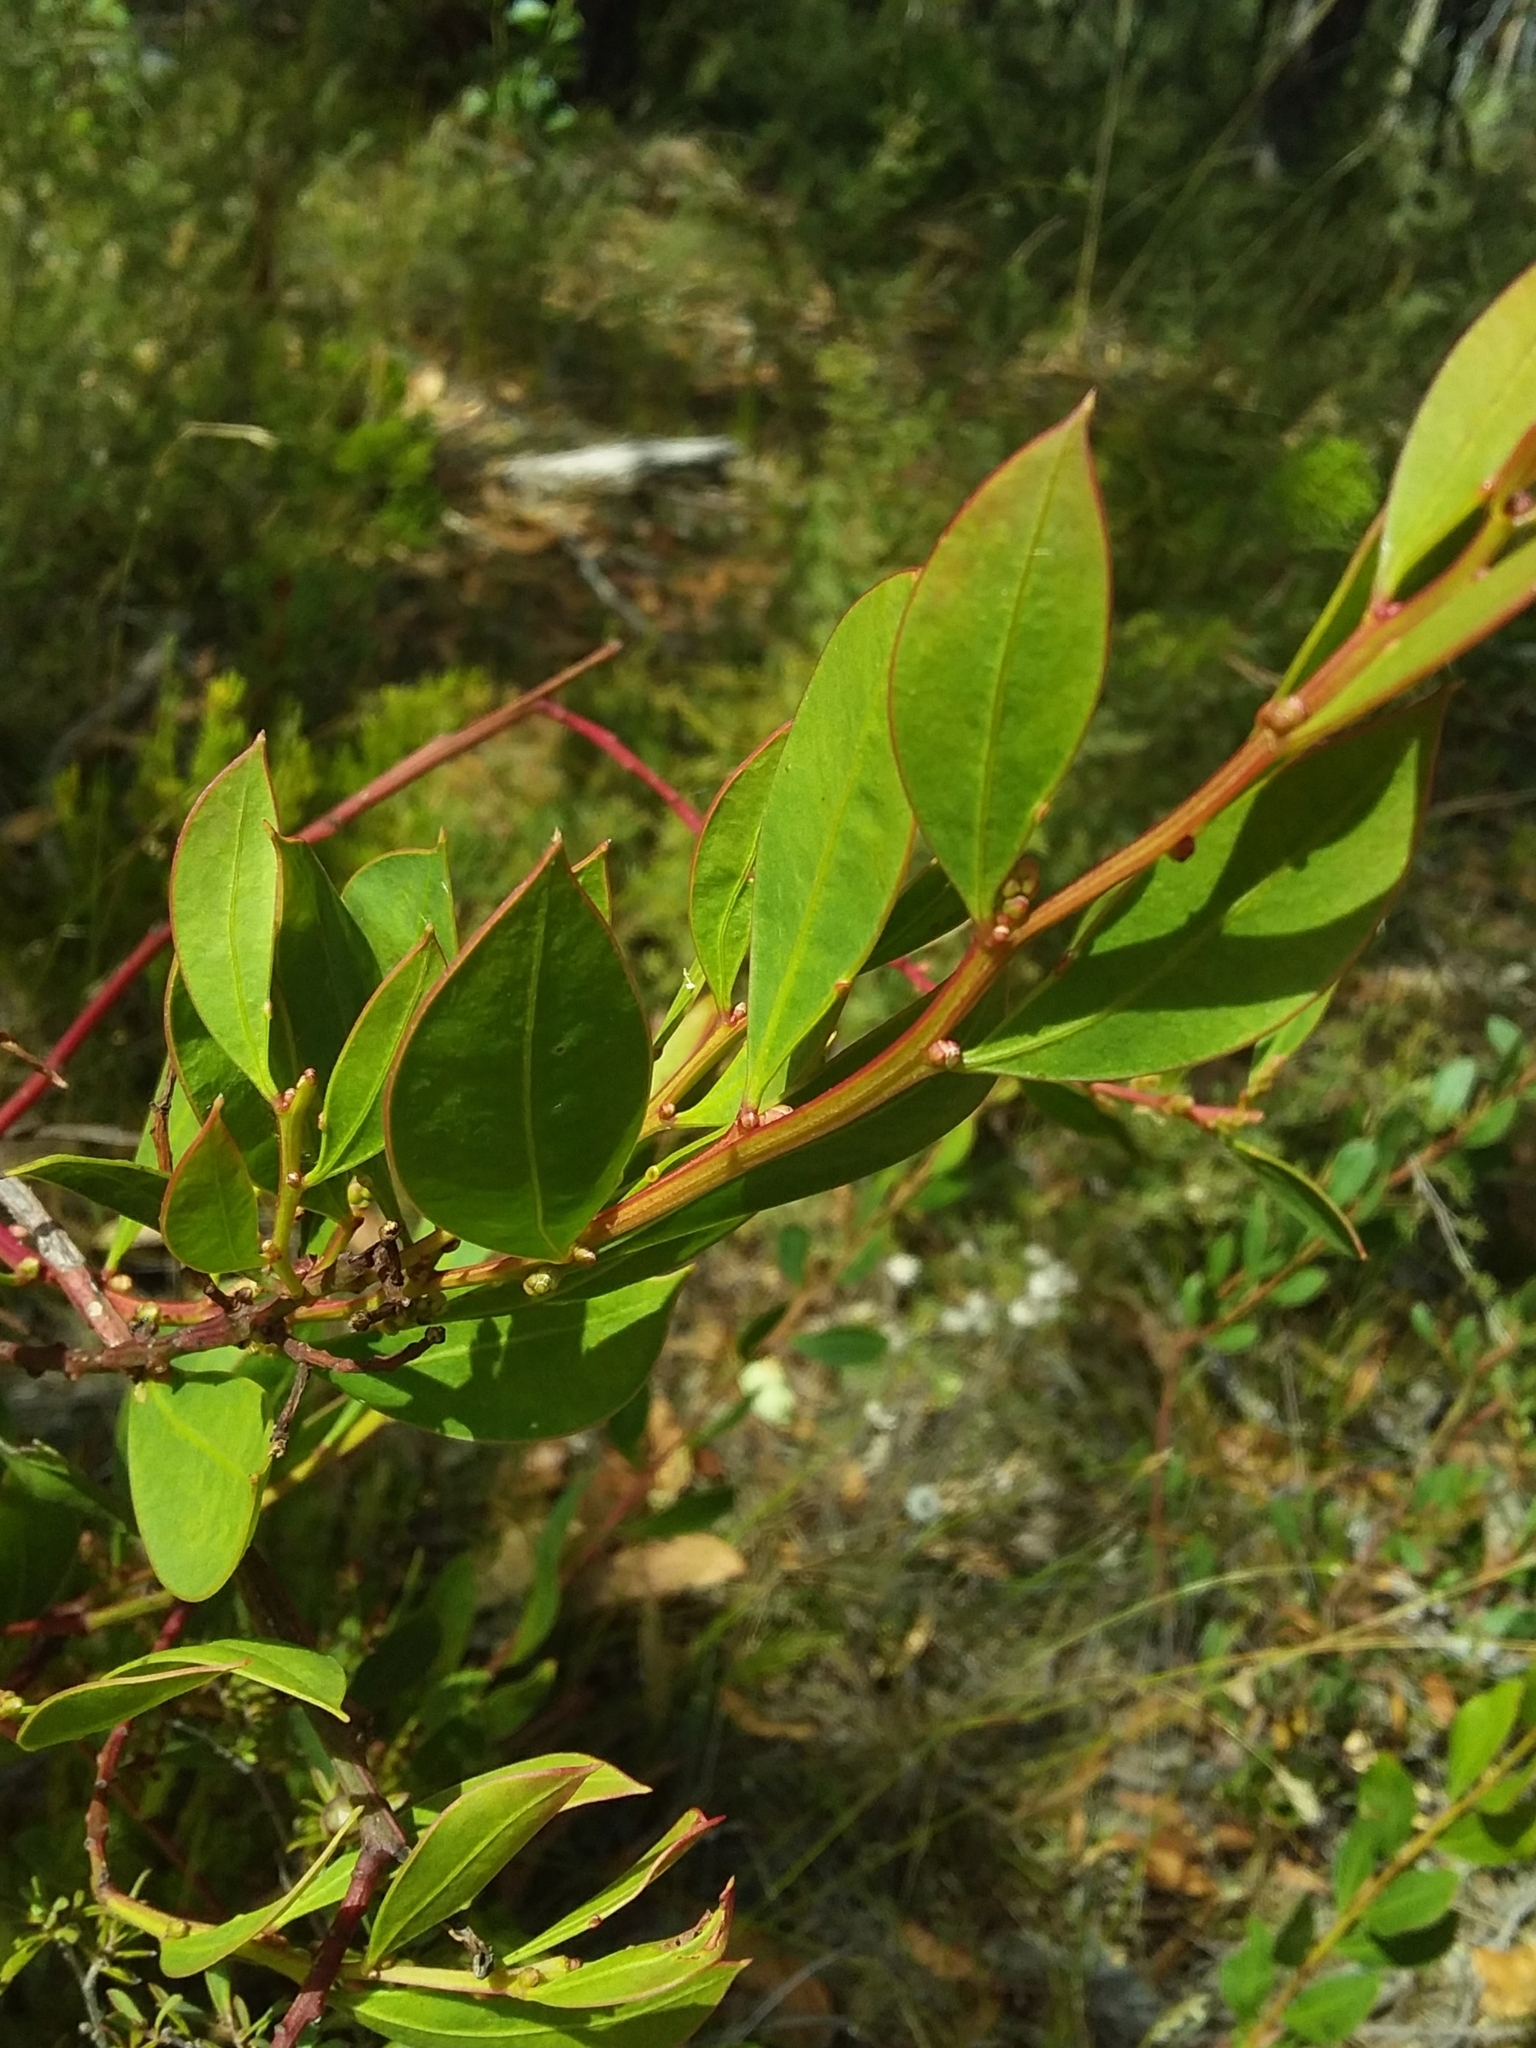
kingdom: Plantae
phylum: Tracheophyta
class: Magnoliopsida
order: Fabales
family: Fabaceae
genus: Acacia
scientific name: Acacia myrtifolia
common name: Myrtle wattle
